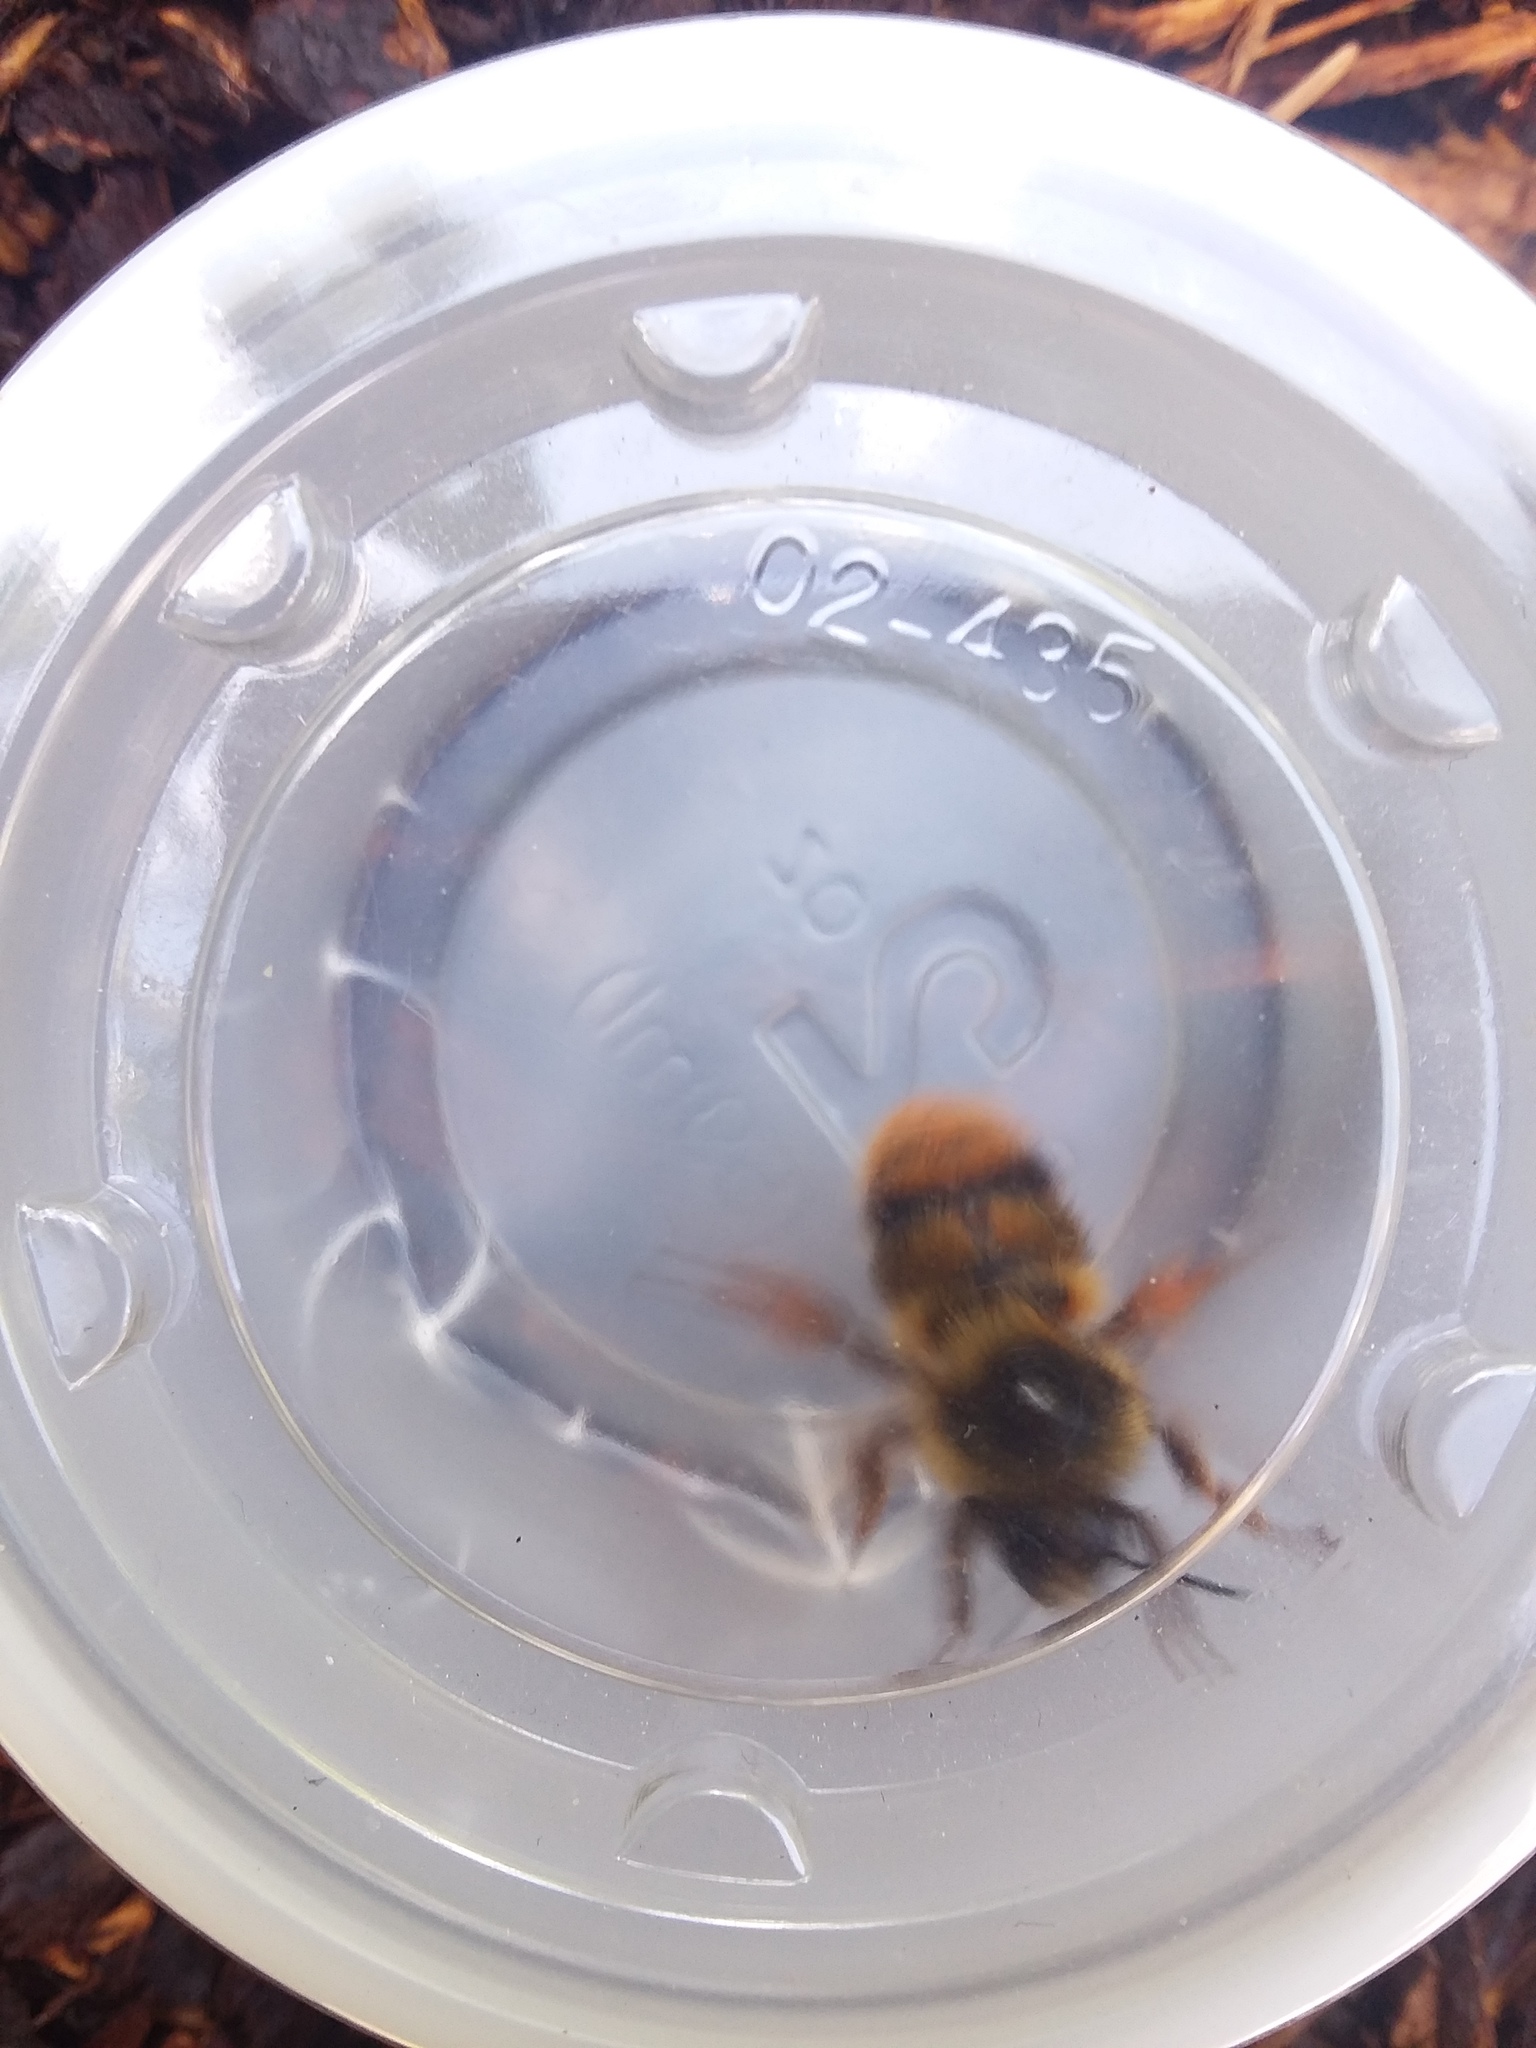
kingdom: Animalia
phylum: Arthropoda
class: Insecta
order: Hymenoptera
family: Apidae
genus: Bombus
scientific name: Bombus mixtus
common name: Fuzzy-horned bumble bee
